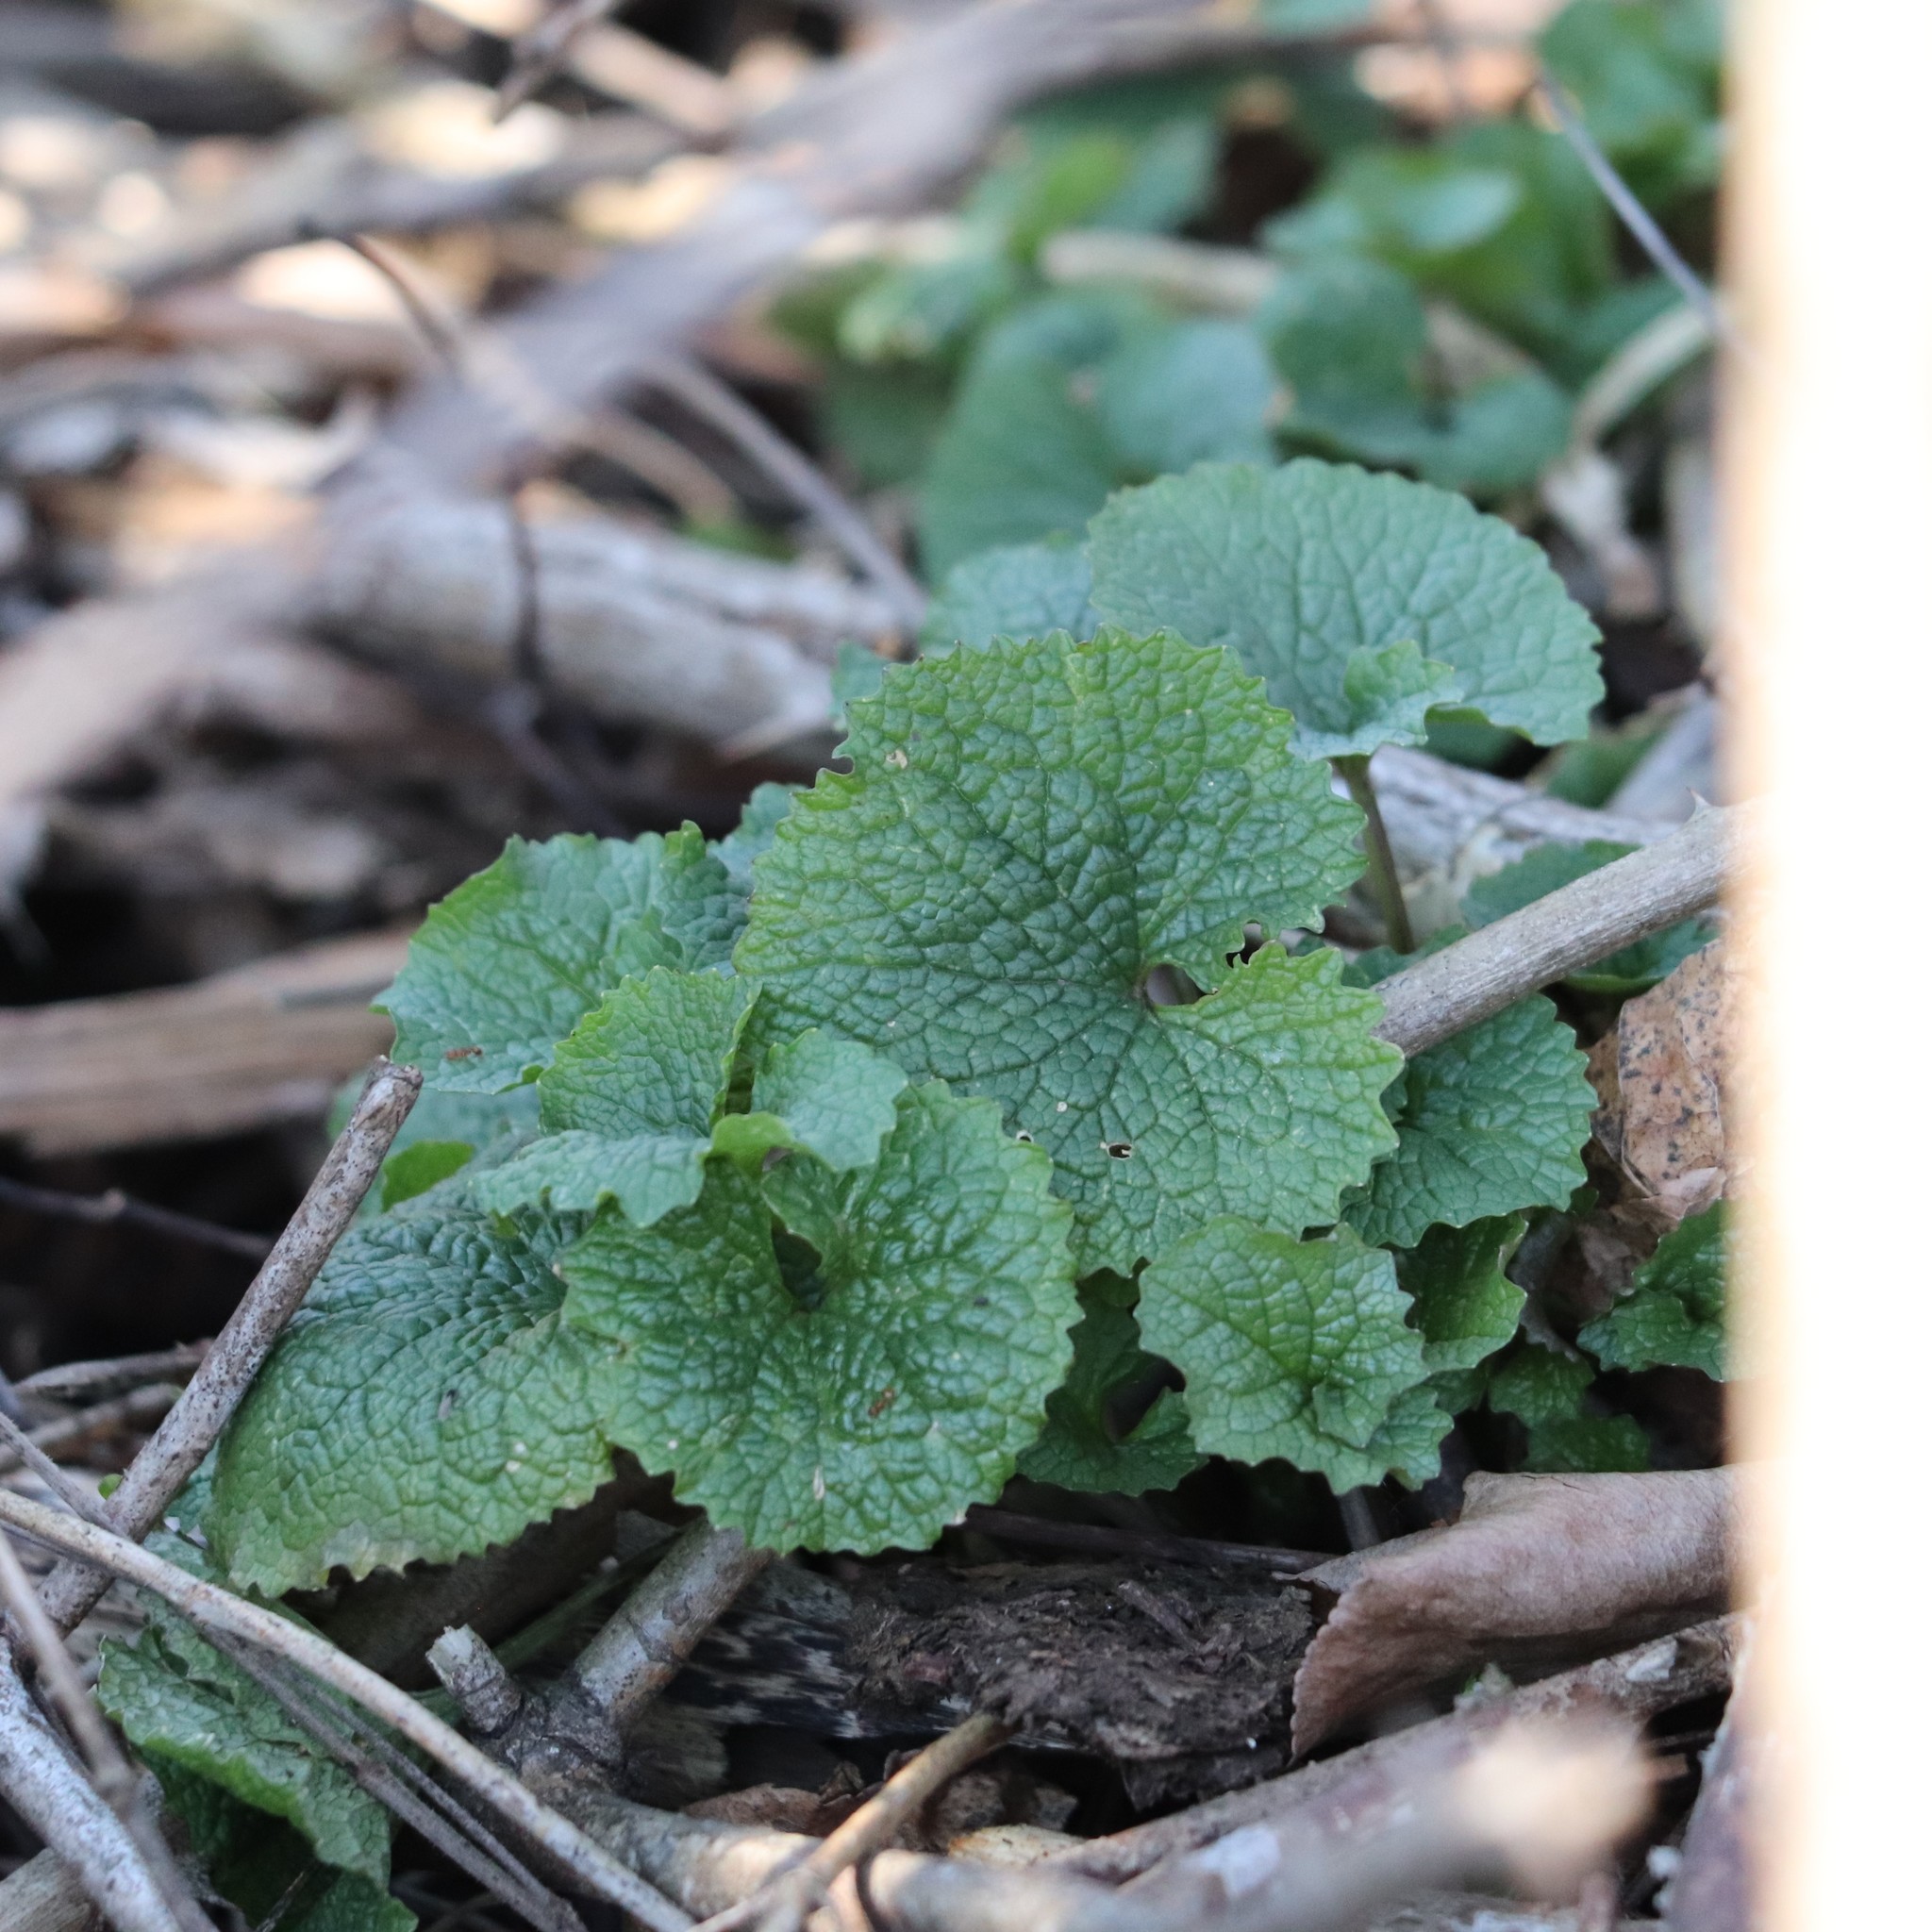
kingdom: Plantae
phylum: Tracheophyta
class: Magnoliopsida
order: Brassicales
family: Brassicaceae
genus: Alliaria
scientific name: Alliaria petiolata
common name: Garlic mustard
